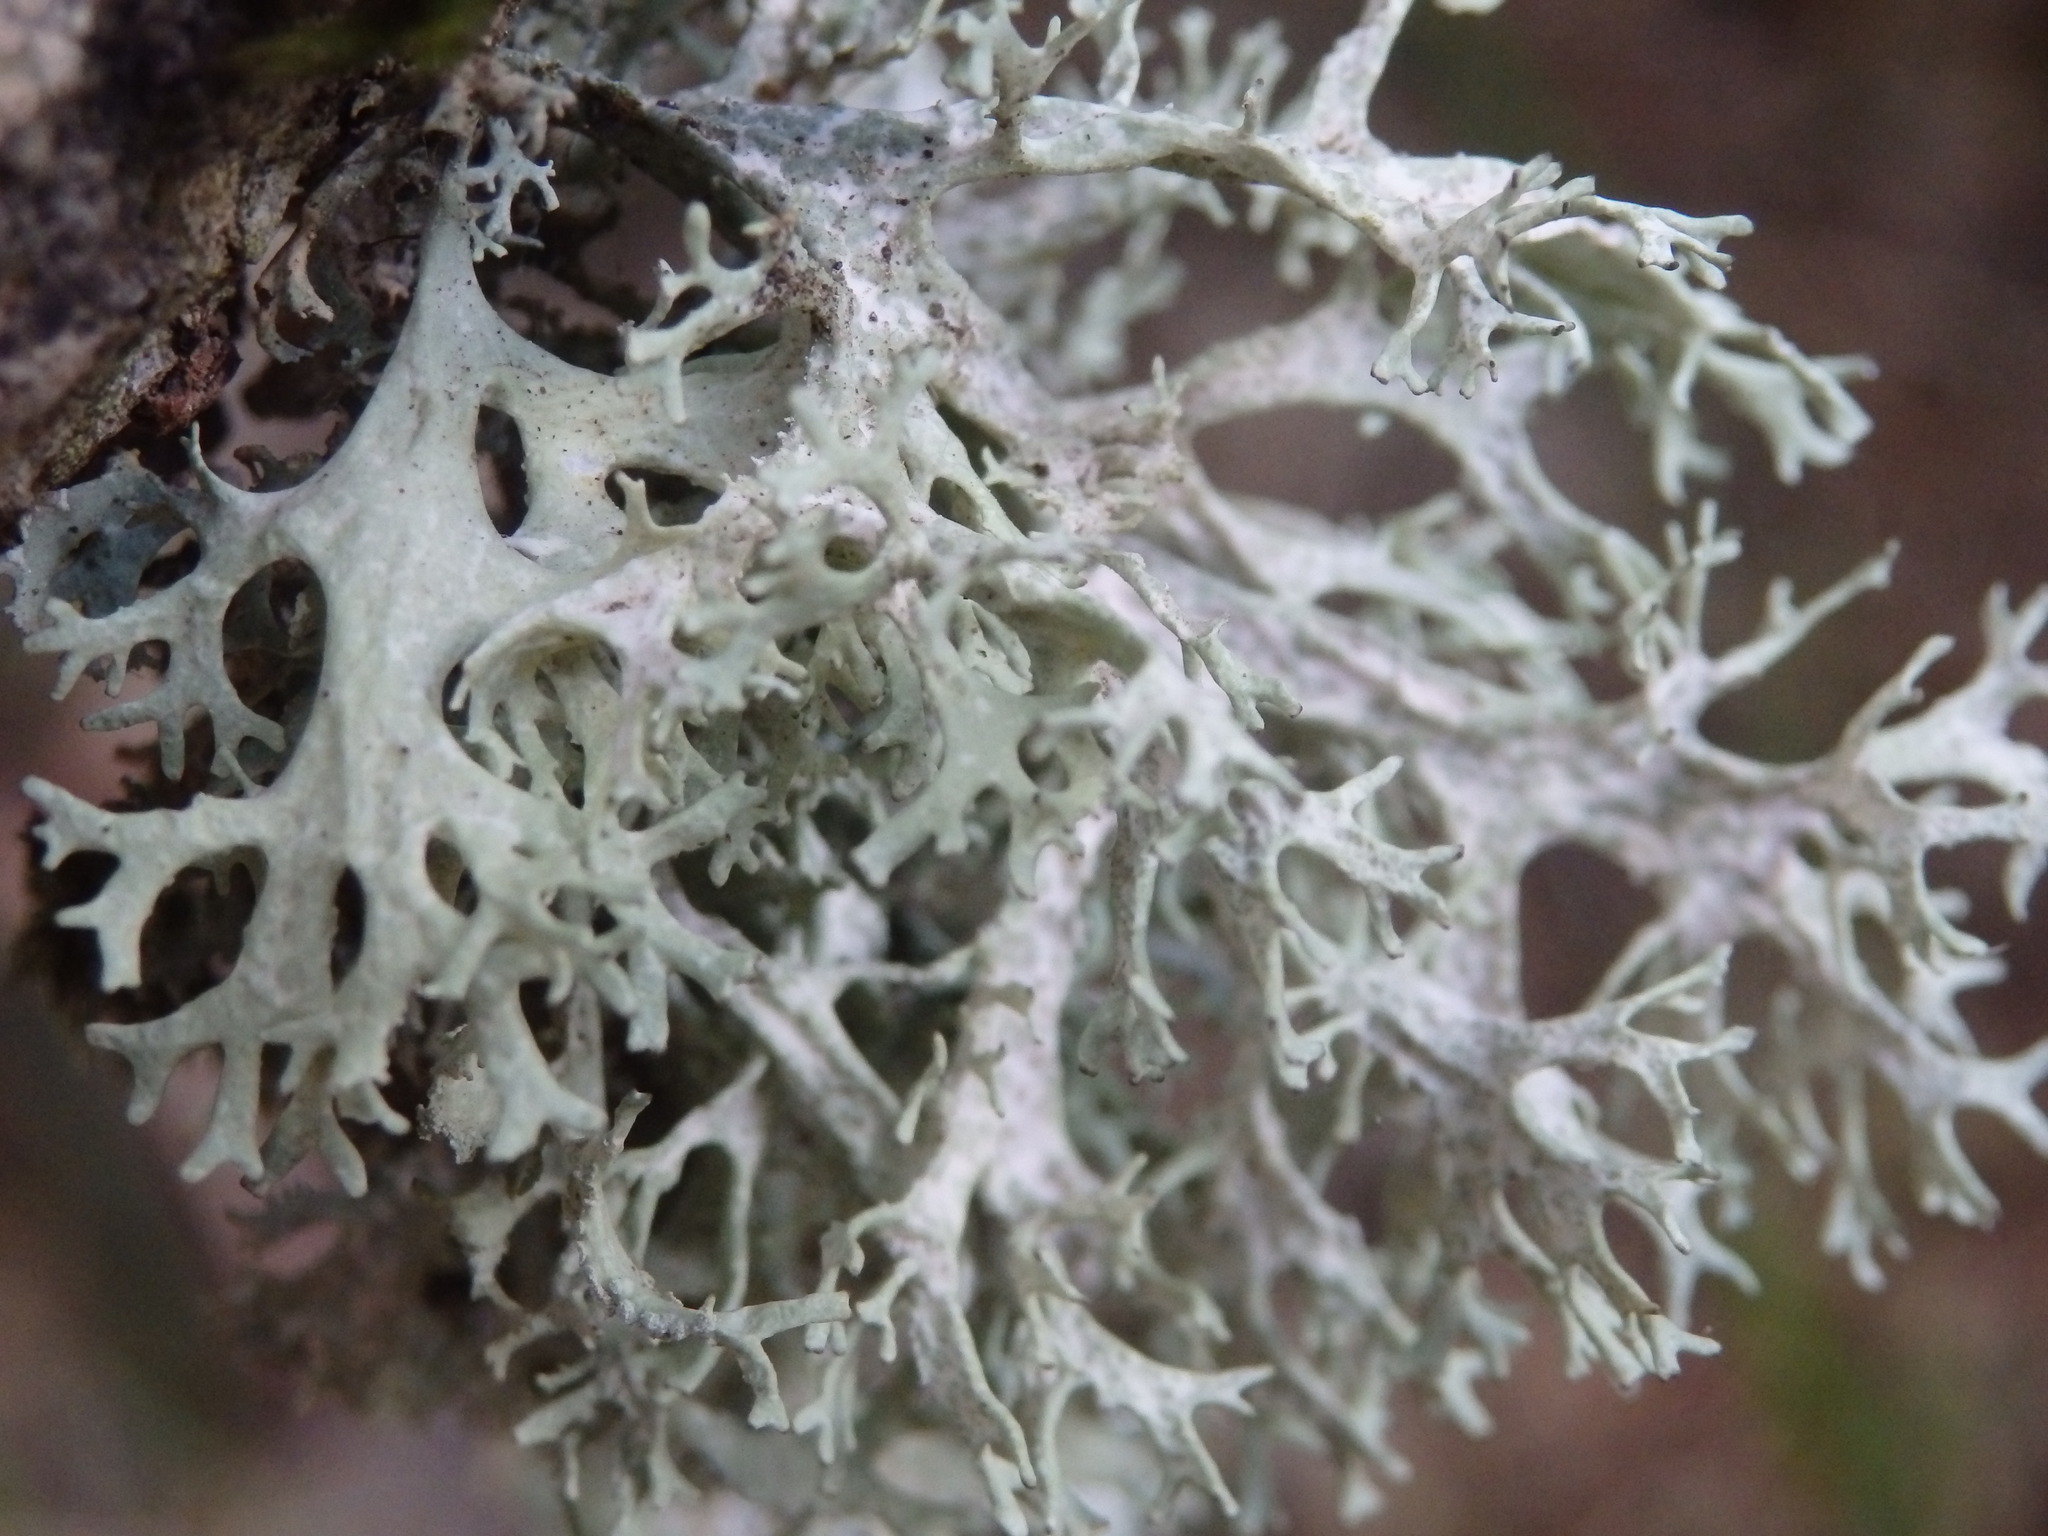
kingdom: Fungi
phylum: Ascomycota
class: Lecanoromycetes
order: Lecanorales
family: Parmeliaceae
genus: Evernia
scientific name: Evernia prunastri
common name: Oak moss
